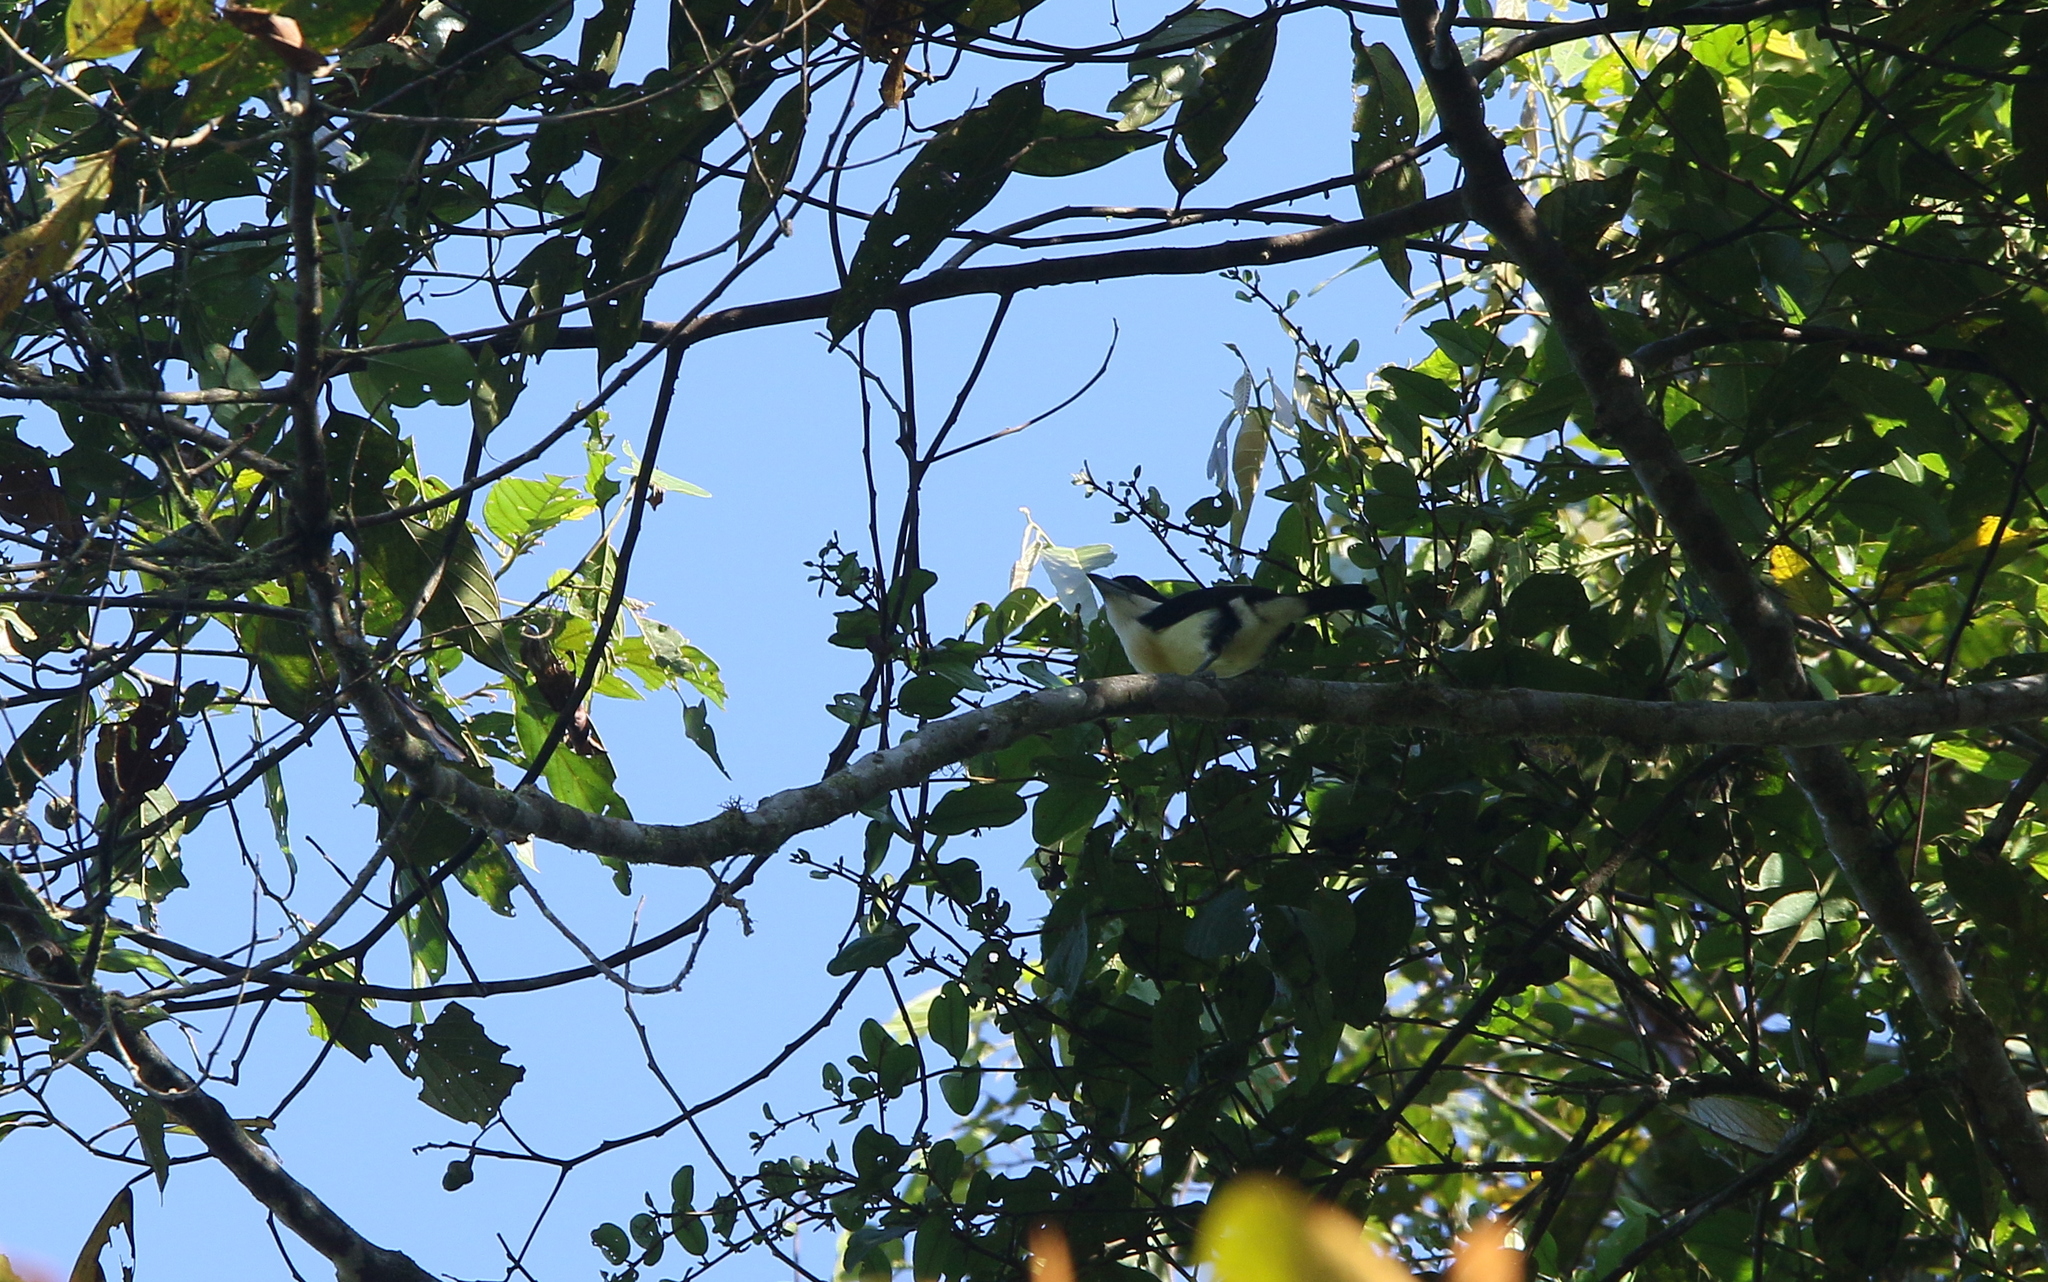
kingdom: Animalia
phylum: Chordata
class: Aves
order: Piciformes
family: Capitonidae
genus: Capito
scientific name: Capito squamatus
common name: Orange-fronted barbet
